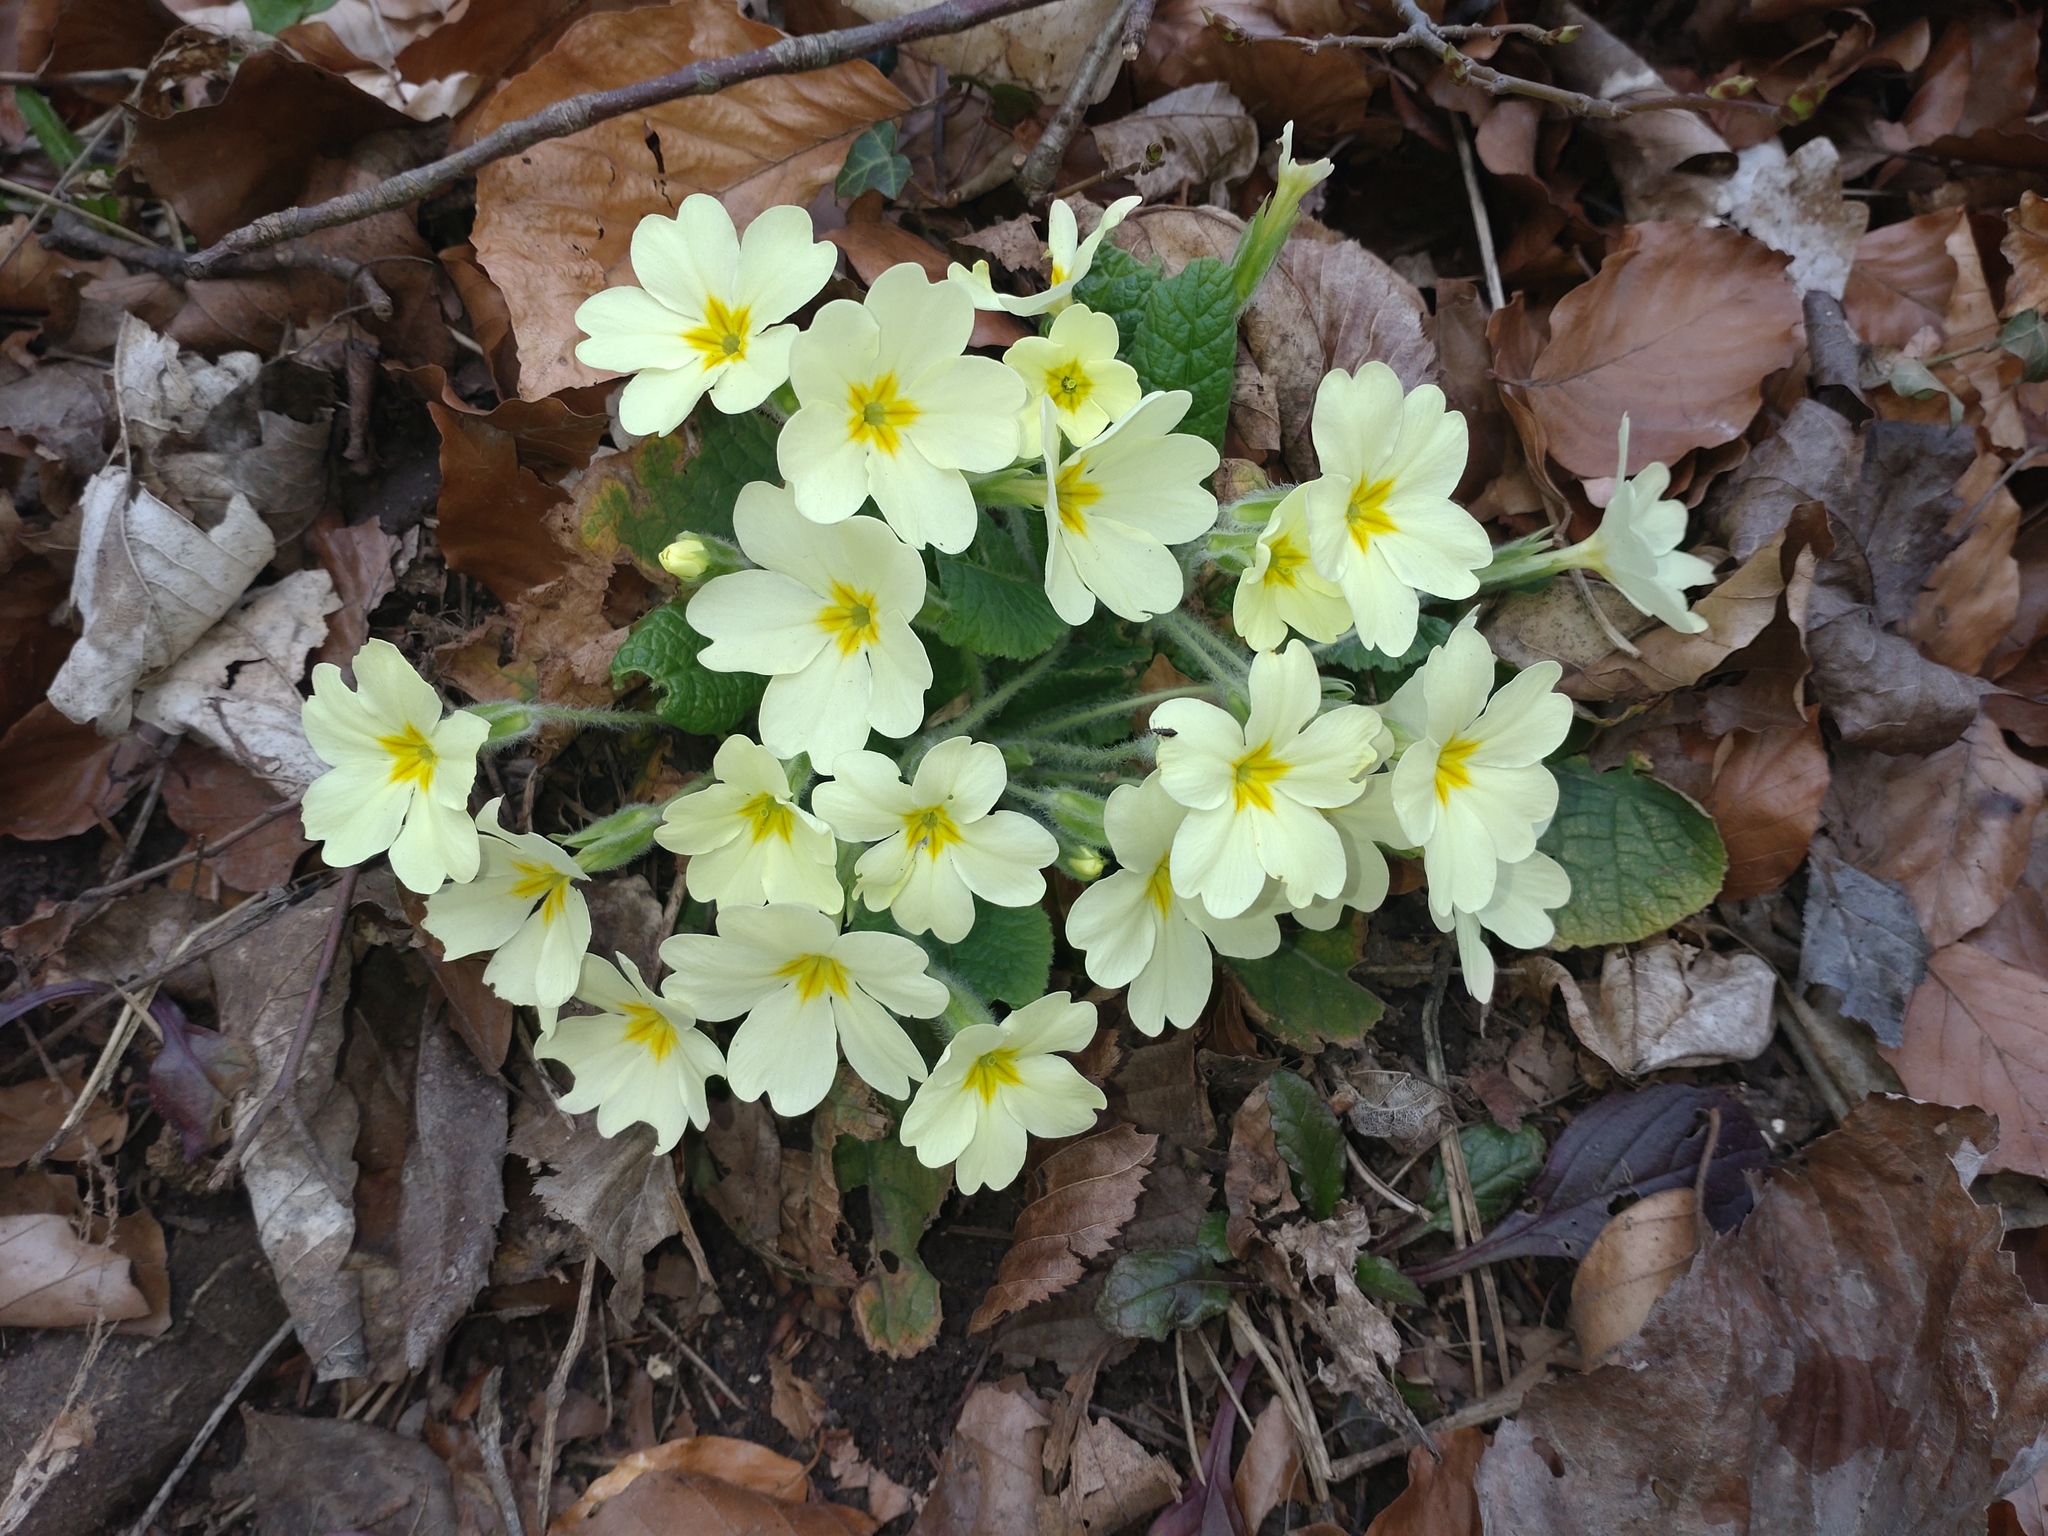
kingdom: Plantae
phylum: Tracheophyta
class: Magnoliopsida
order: Ericales
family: Primulaceae
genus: Primula
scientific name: Primula vulgaris
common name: Primrose
